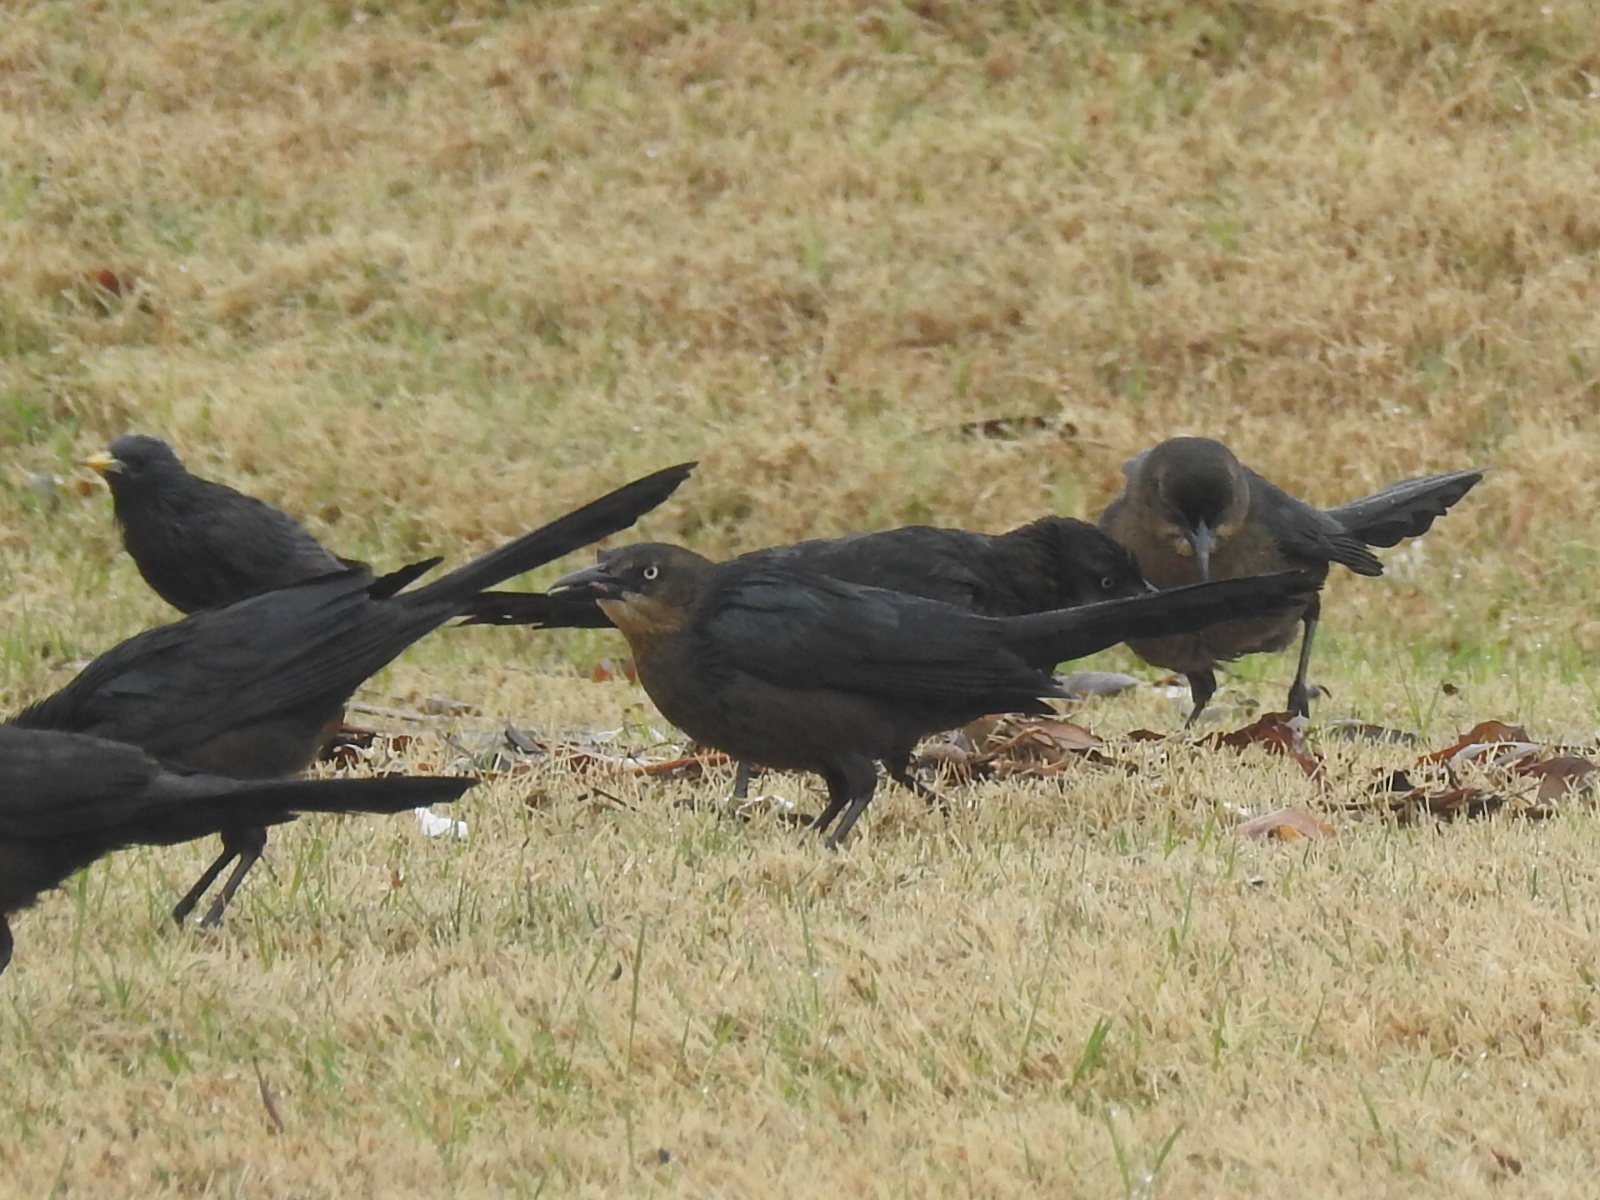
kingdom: Animalia
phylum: Chordata
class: Aves
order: Passeriformes
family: Icteridae
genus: Quiscalus
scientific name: Quiscalus mexicanus
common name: Great-tailed grackle
